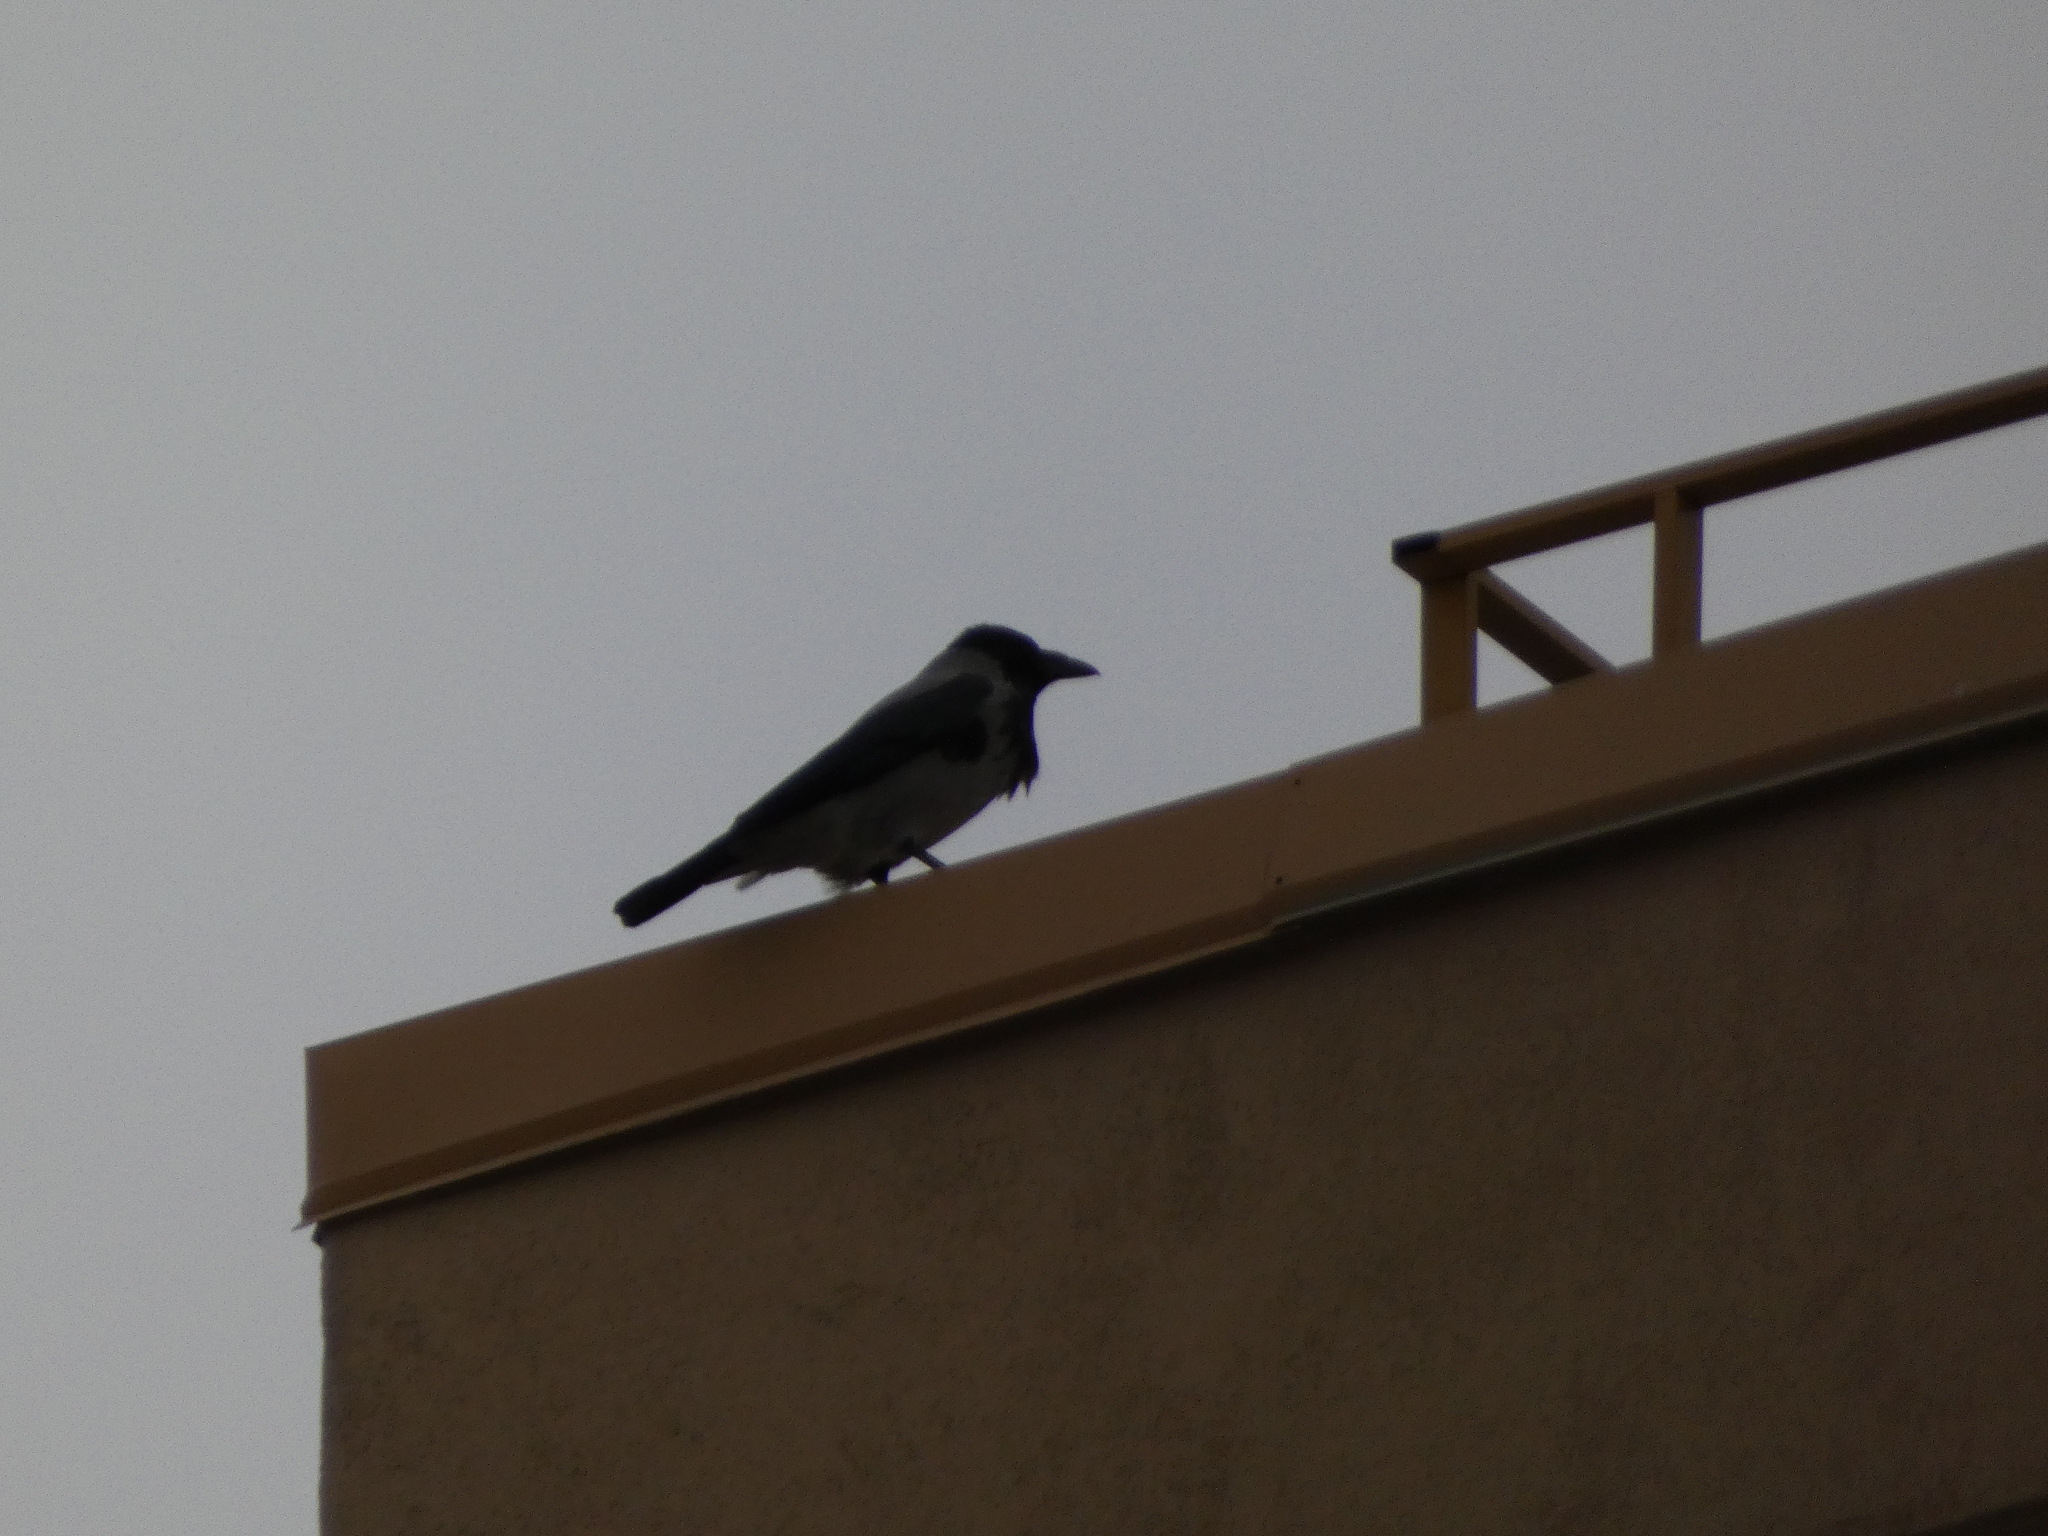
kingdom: Animalia
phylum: Chordata
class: Aves
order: Passeriformes
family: Corvidae
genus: Corvus
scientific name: Corvus cornix
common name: Hooded crow
